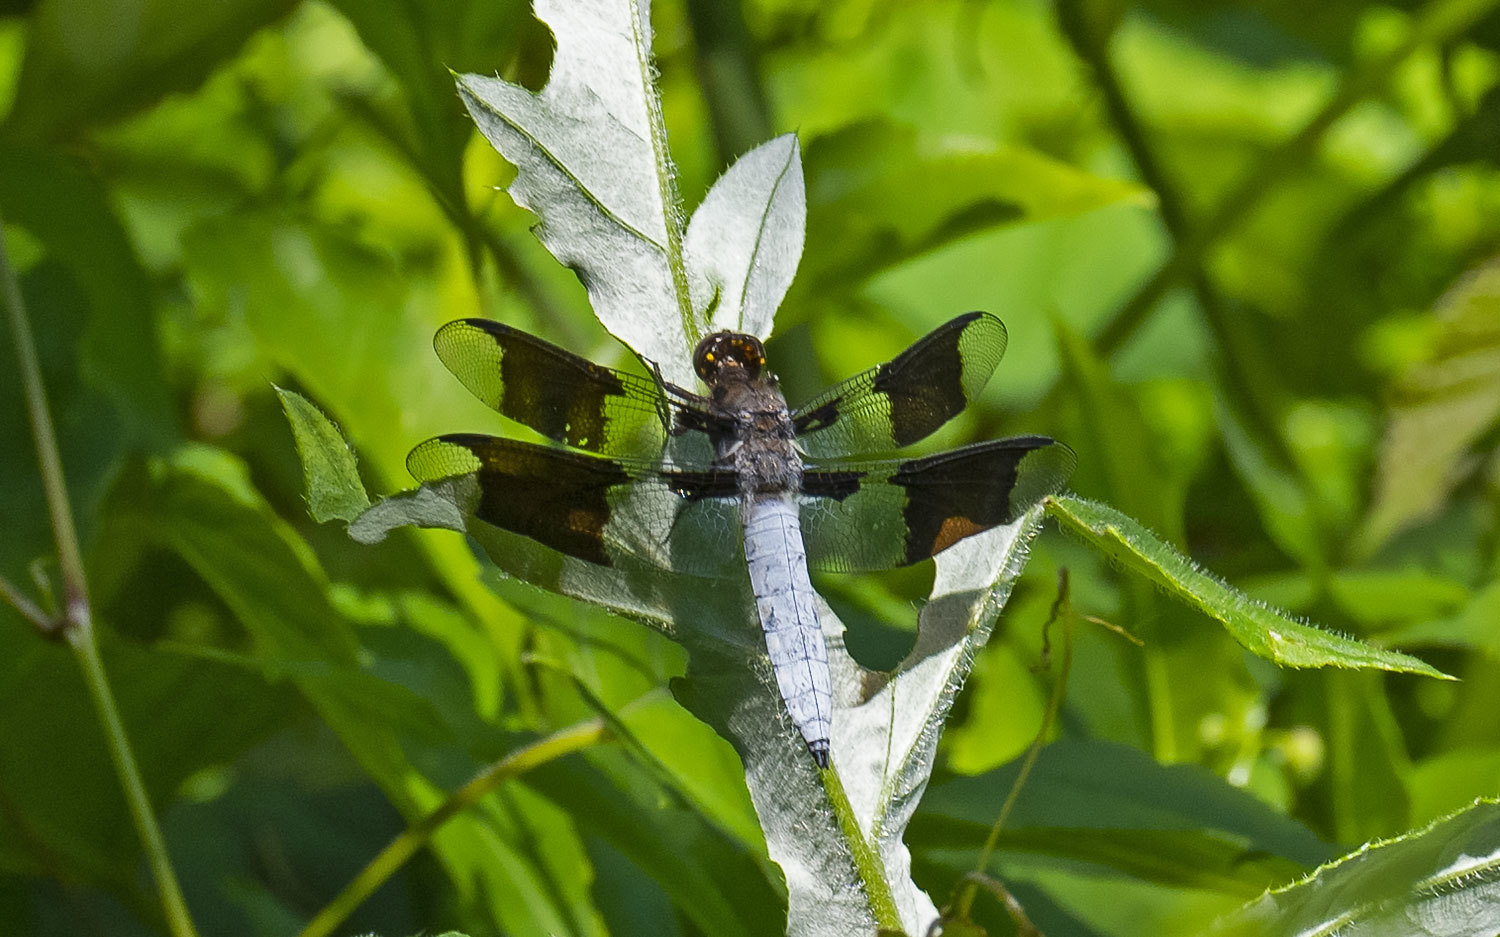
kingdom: Animalia
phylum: Arthropoda
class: Insecta
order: Odonata
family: Libellulidae
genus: Plathemis
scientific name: Plathemis lydia
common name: Common whitetail
